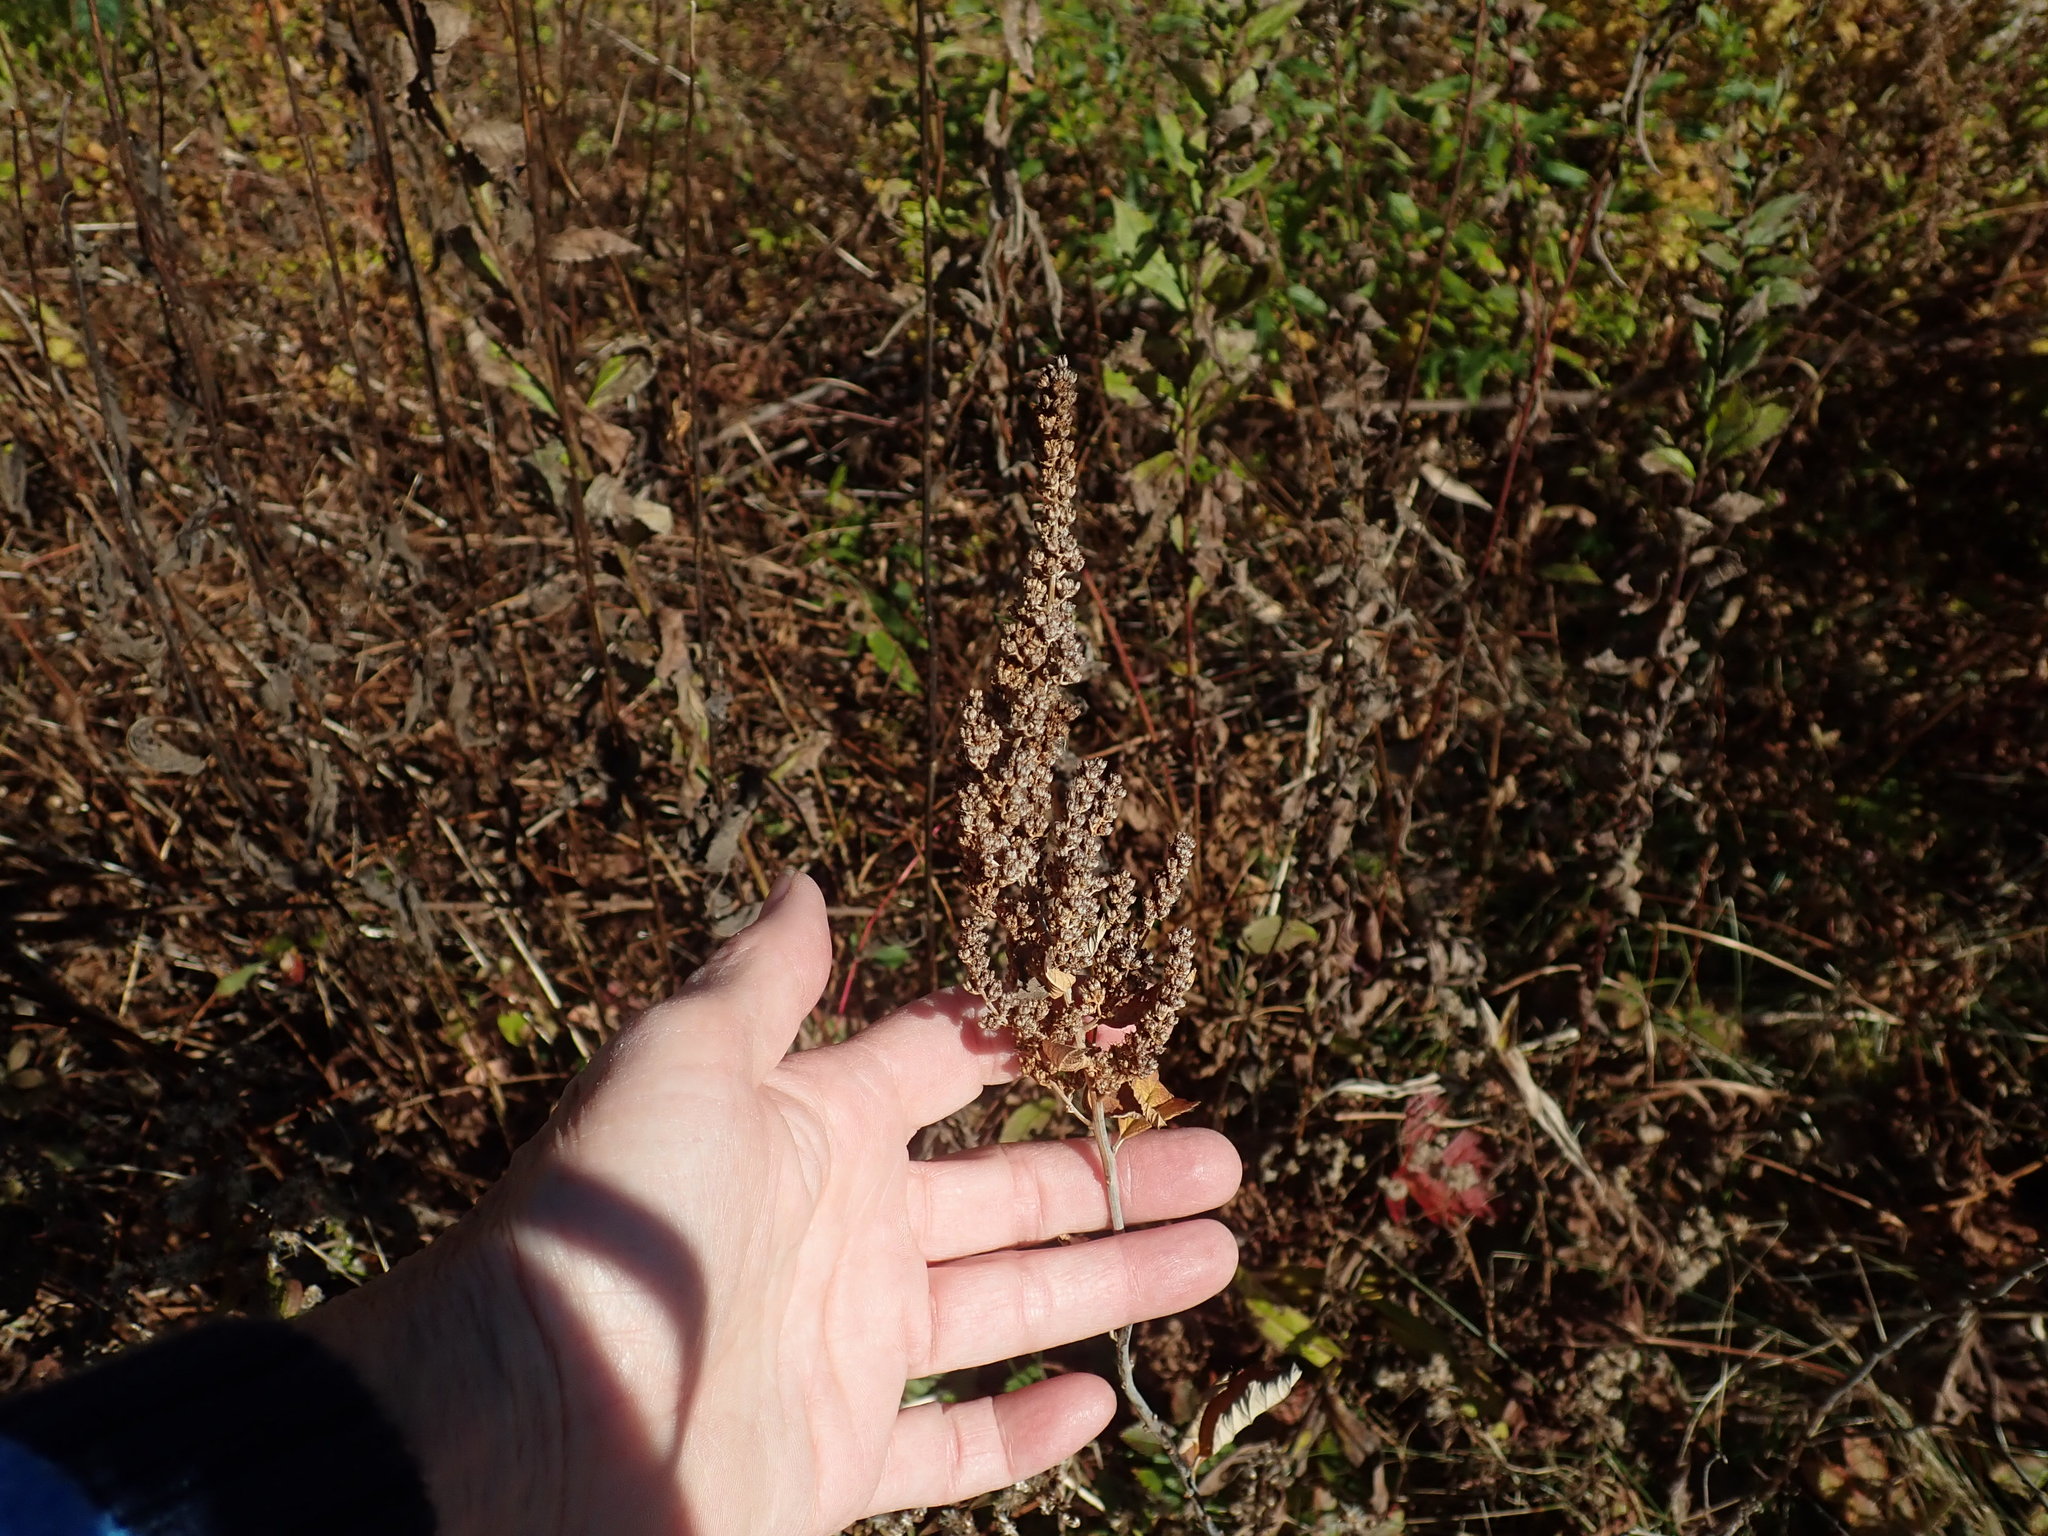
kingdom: Plantae
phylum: Tracheophyta
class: Magnoliopsida
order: Rosales
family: Rosaceae
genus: Spiraea
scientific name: Spiraea tomentosa
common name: Hardhack
